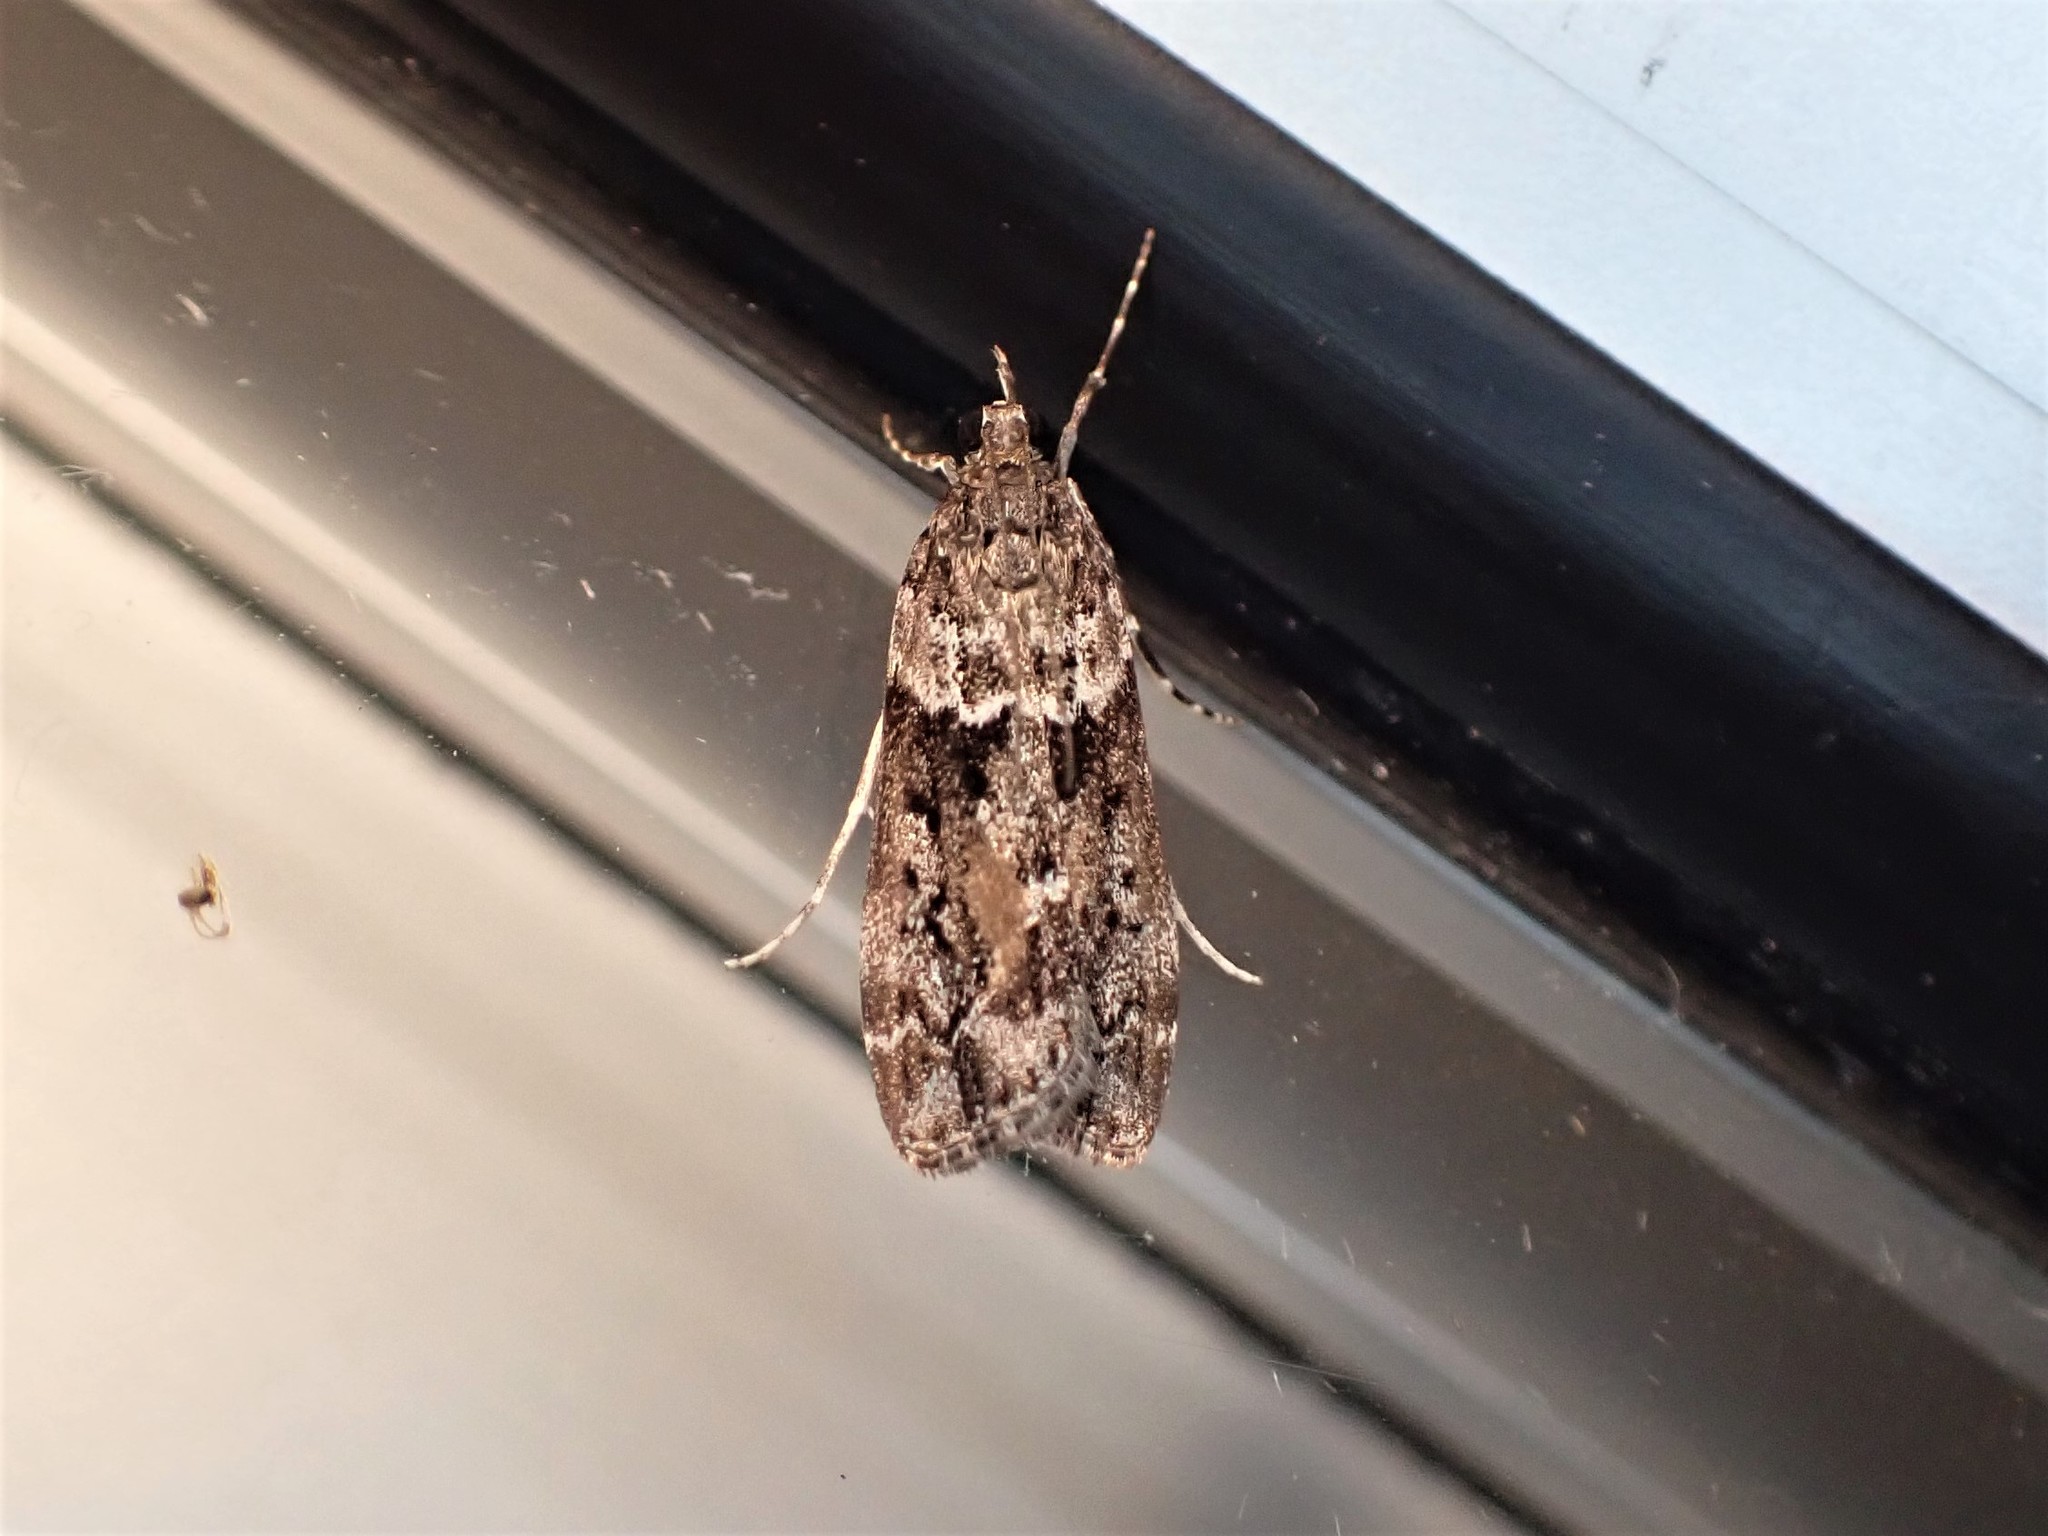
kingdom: Animalia
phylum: Arthropoda
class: Insecta
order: Lepidoptera
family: Crambidae
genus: Eudonia
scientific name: Eudonia submarginalis
